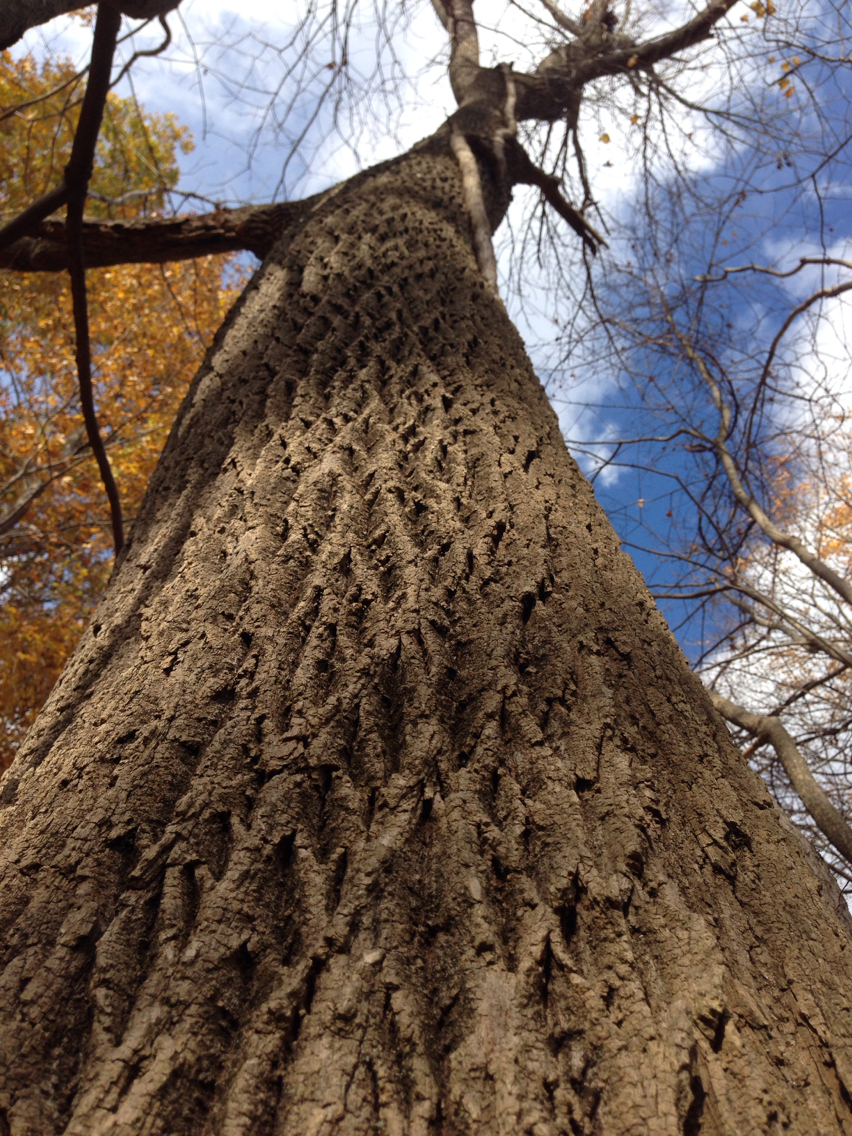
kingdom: Plantae
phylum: Tracheophyta
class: Magnoliopsida
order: Lamiales
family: Oleaceae
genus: Fraxinus
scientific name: Fraxinus americana
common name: White ash
